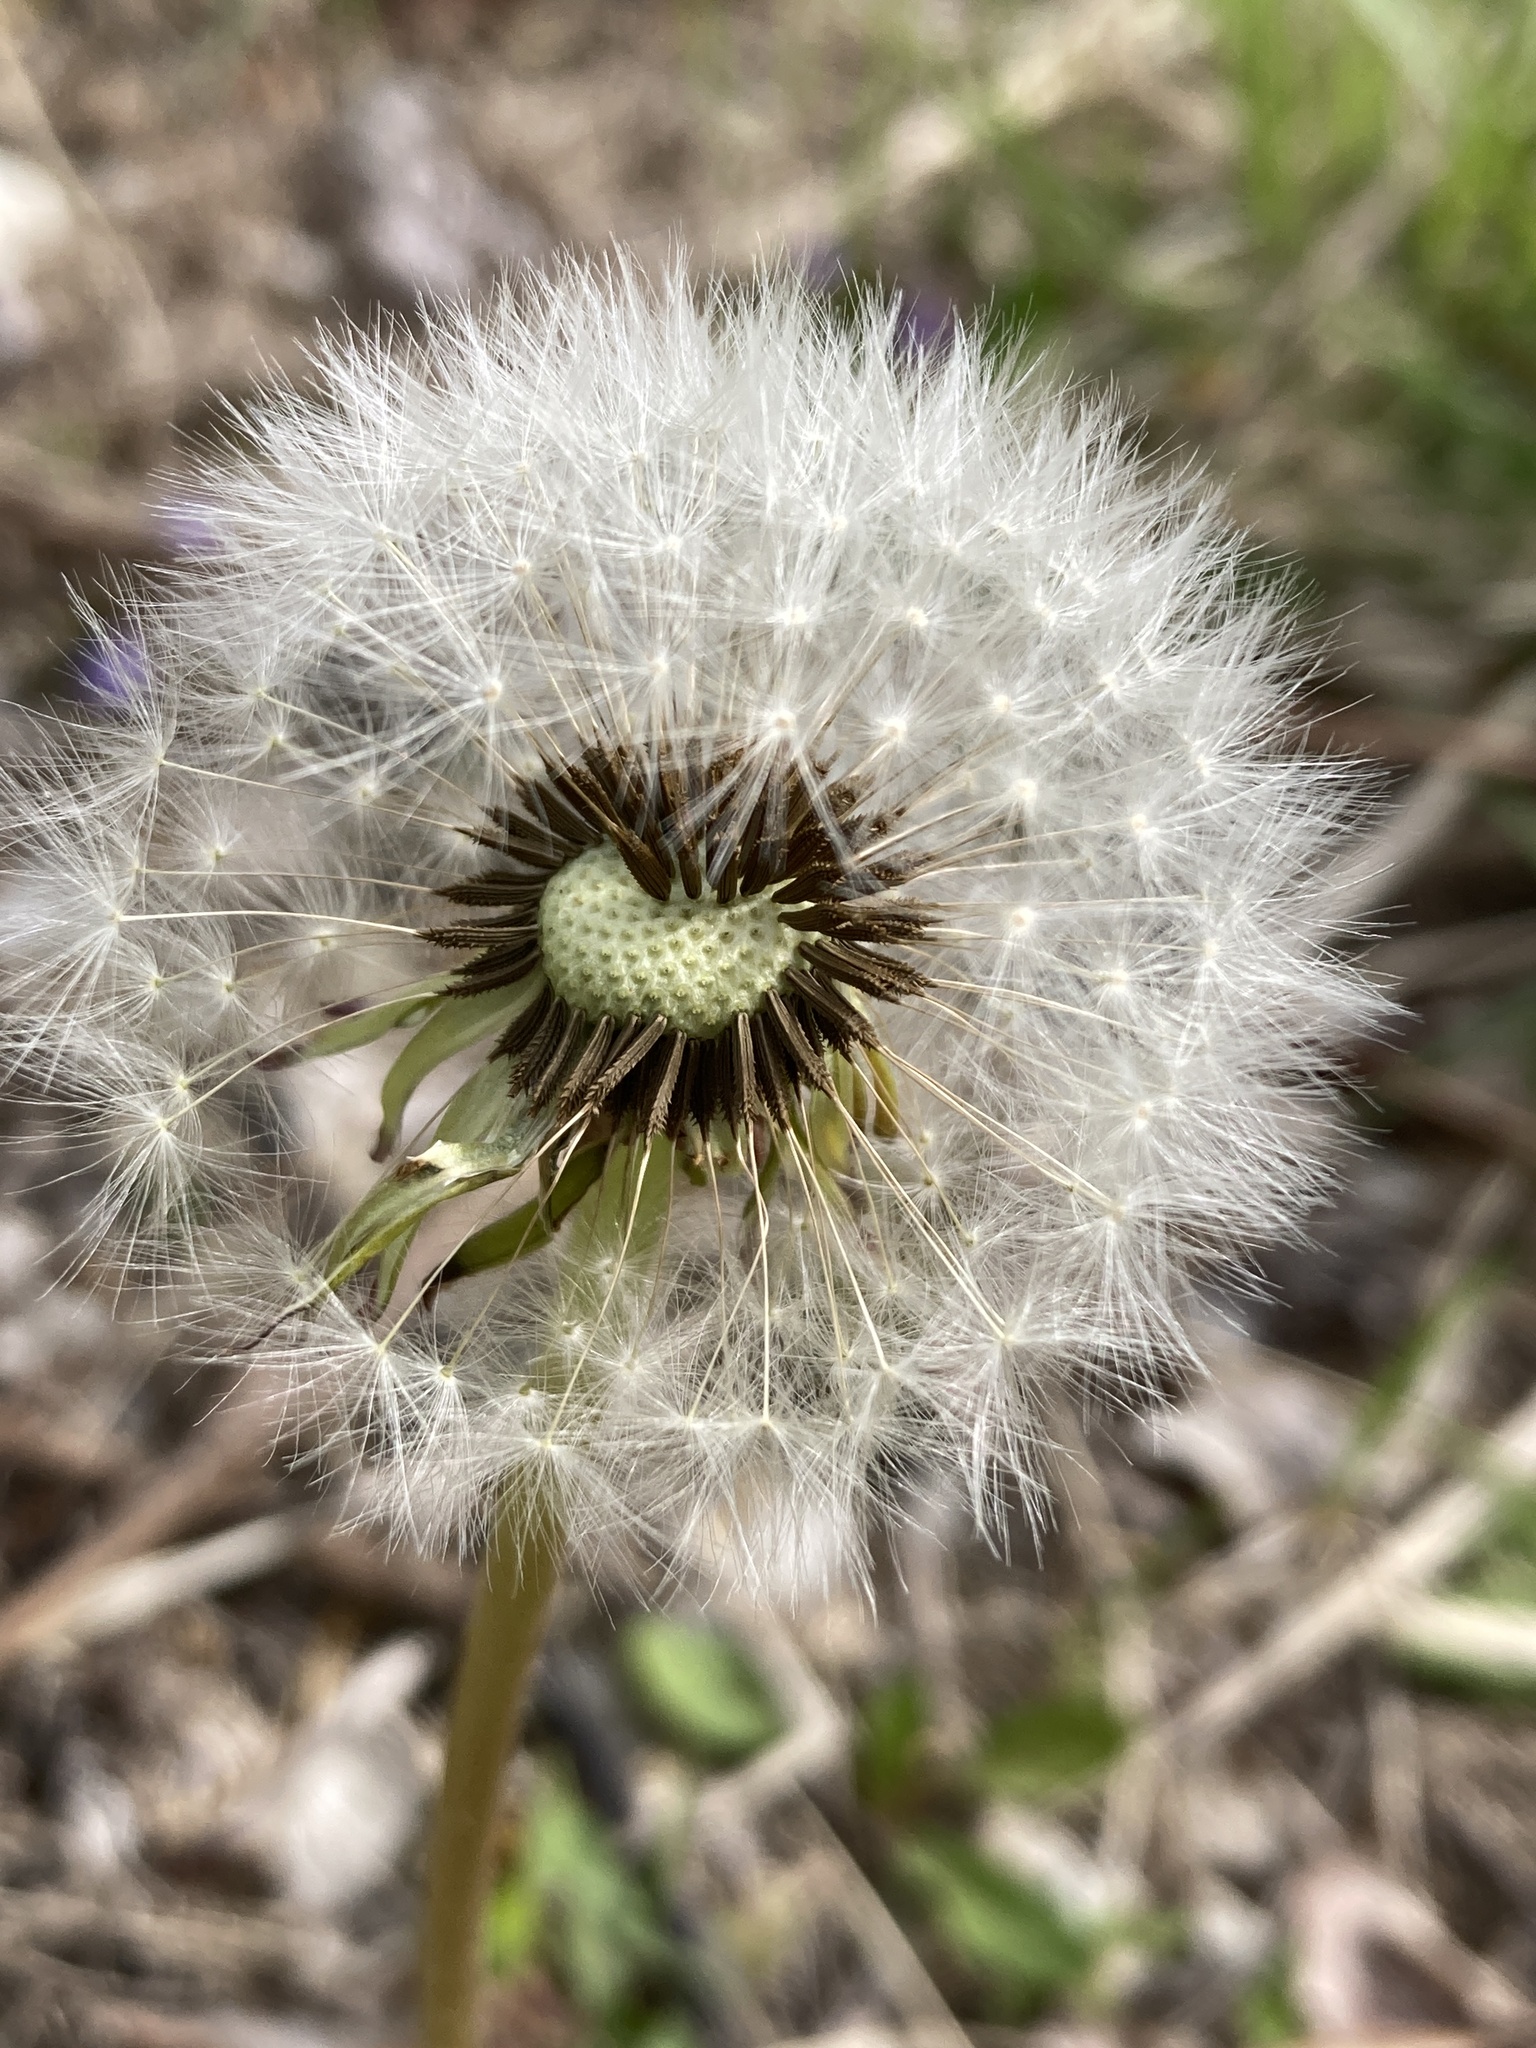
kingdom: Plantae
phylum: Tracheophyta
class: Magnoliopsida
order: Asterales
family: Asteraceae
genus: Taraxacum
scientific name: Taraxacum officinale
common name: Common dandelion
